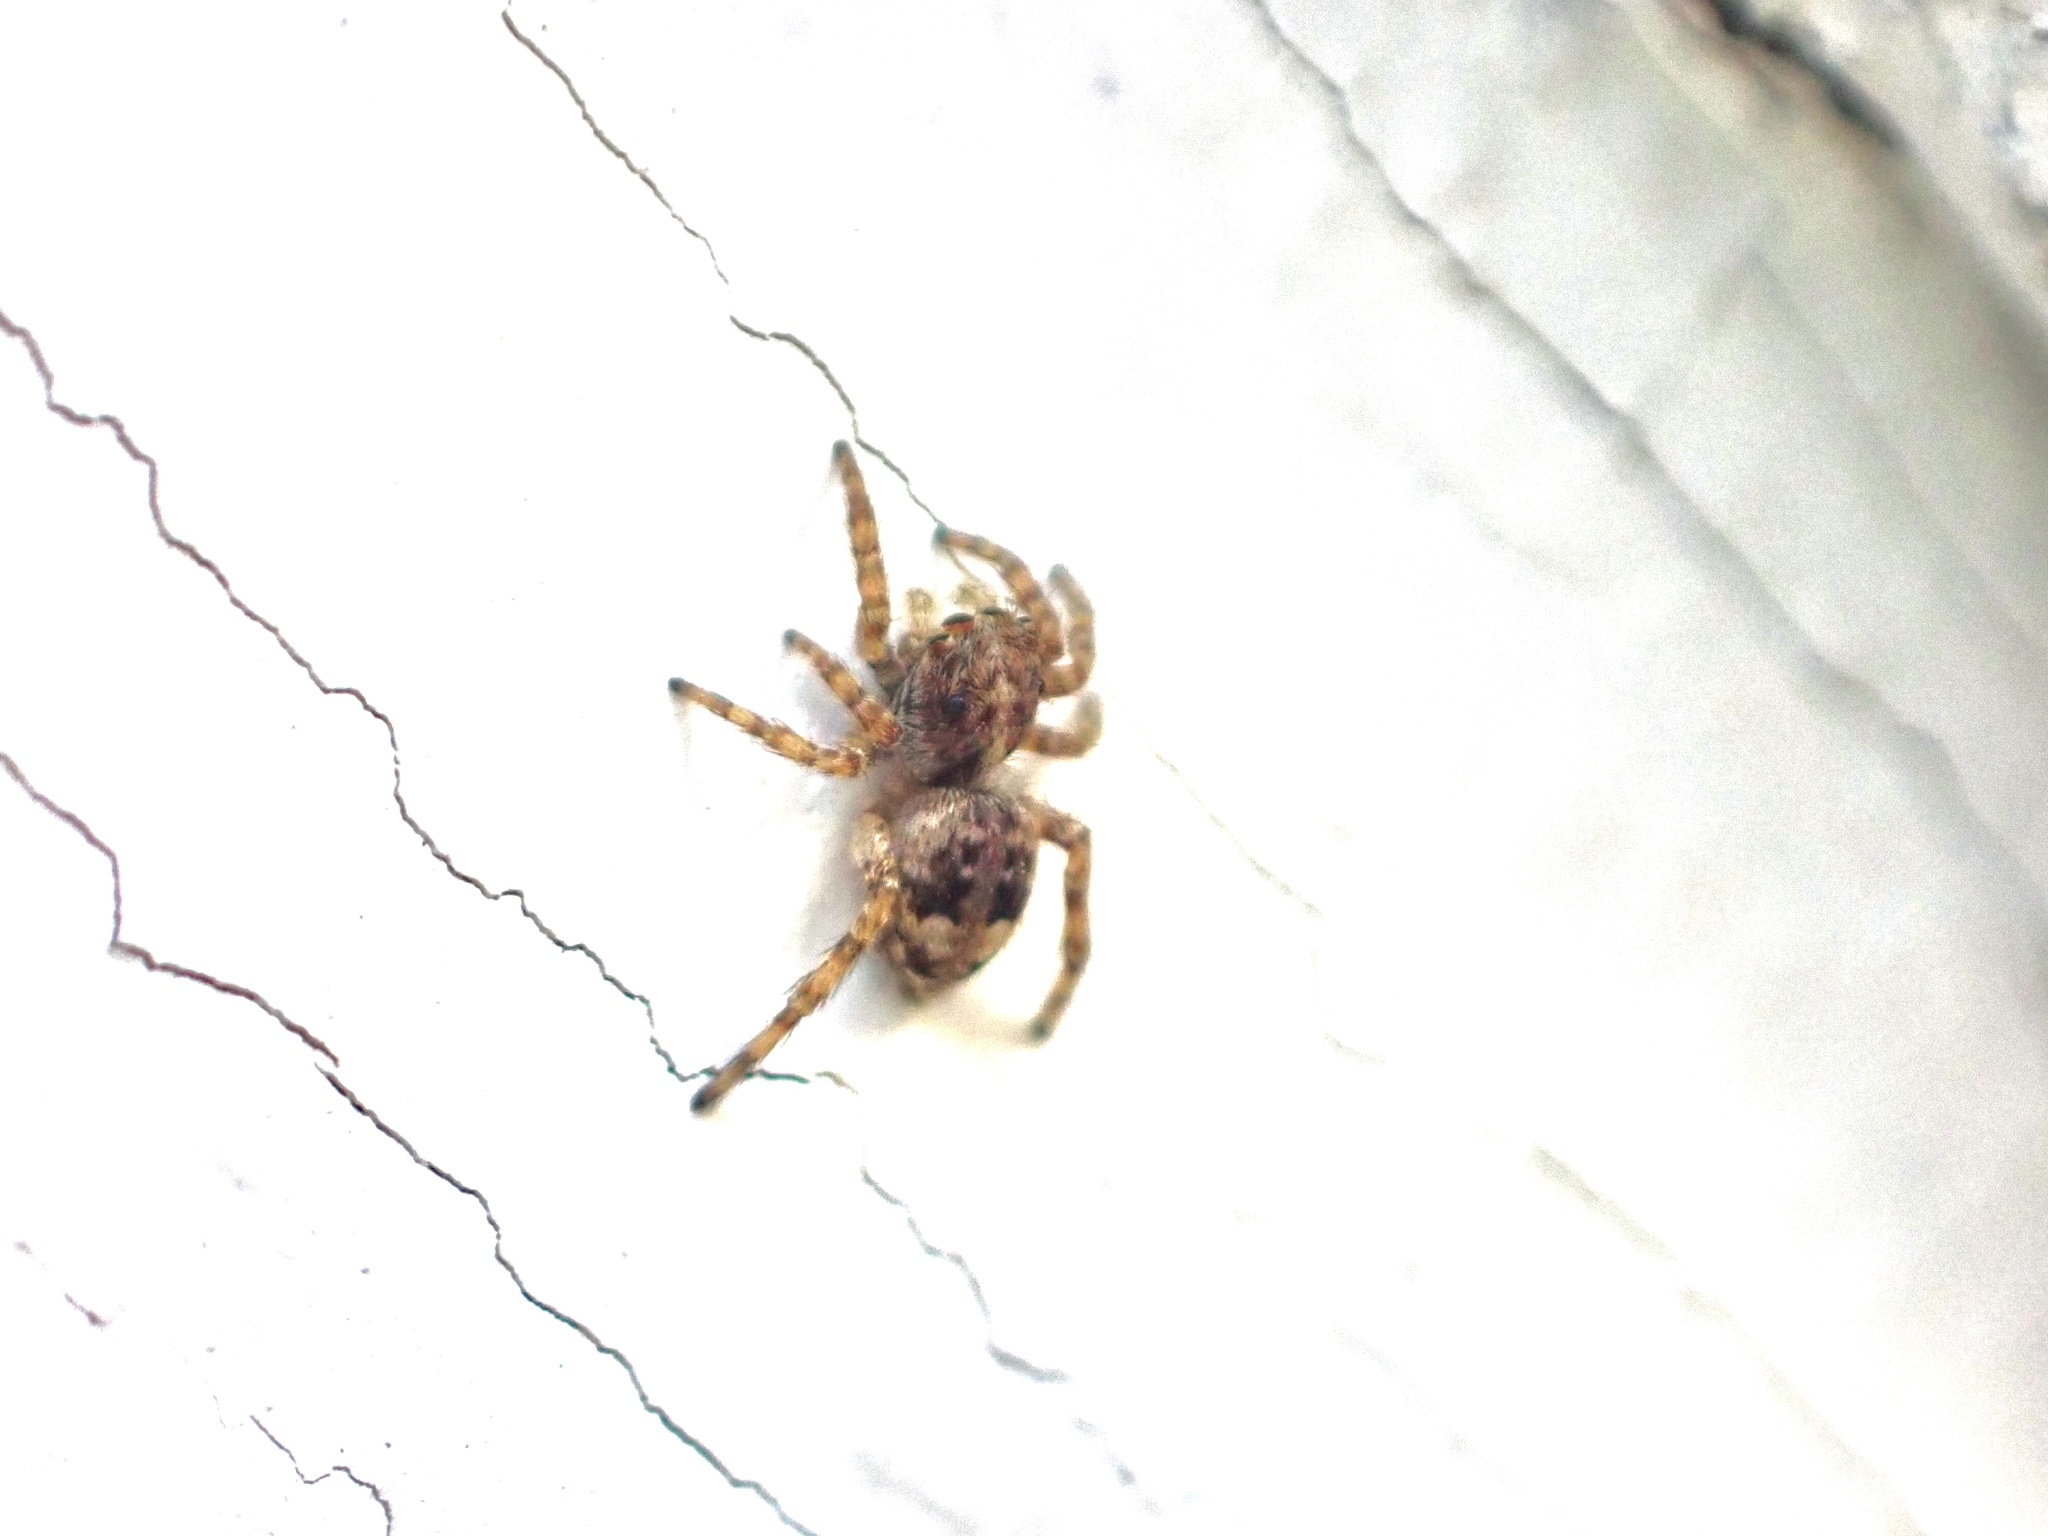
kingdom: Animalia
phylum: Arthropoda
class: Arachnida
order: Araneae
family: Salticidae
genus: Attulus
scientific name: Attulus fasciger
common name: Asiatic wall jumping spider
